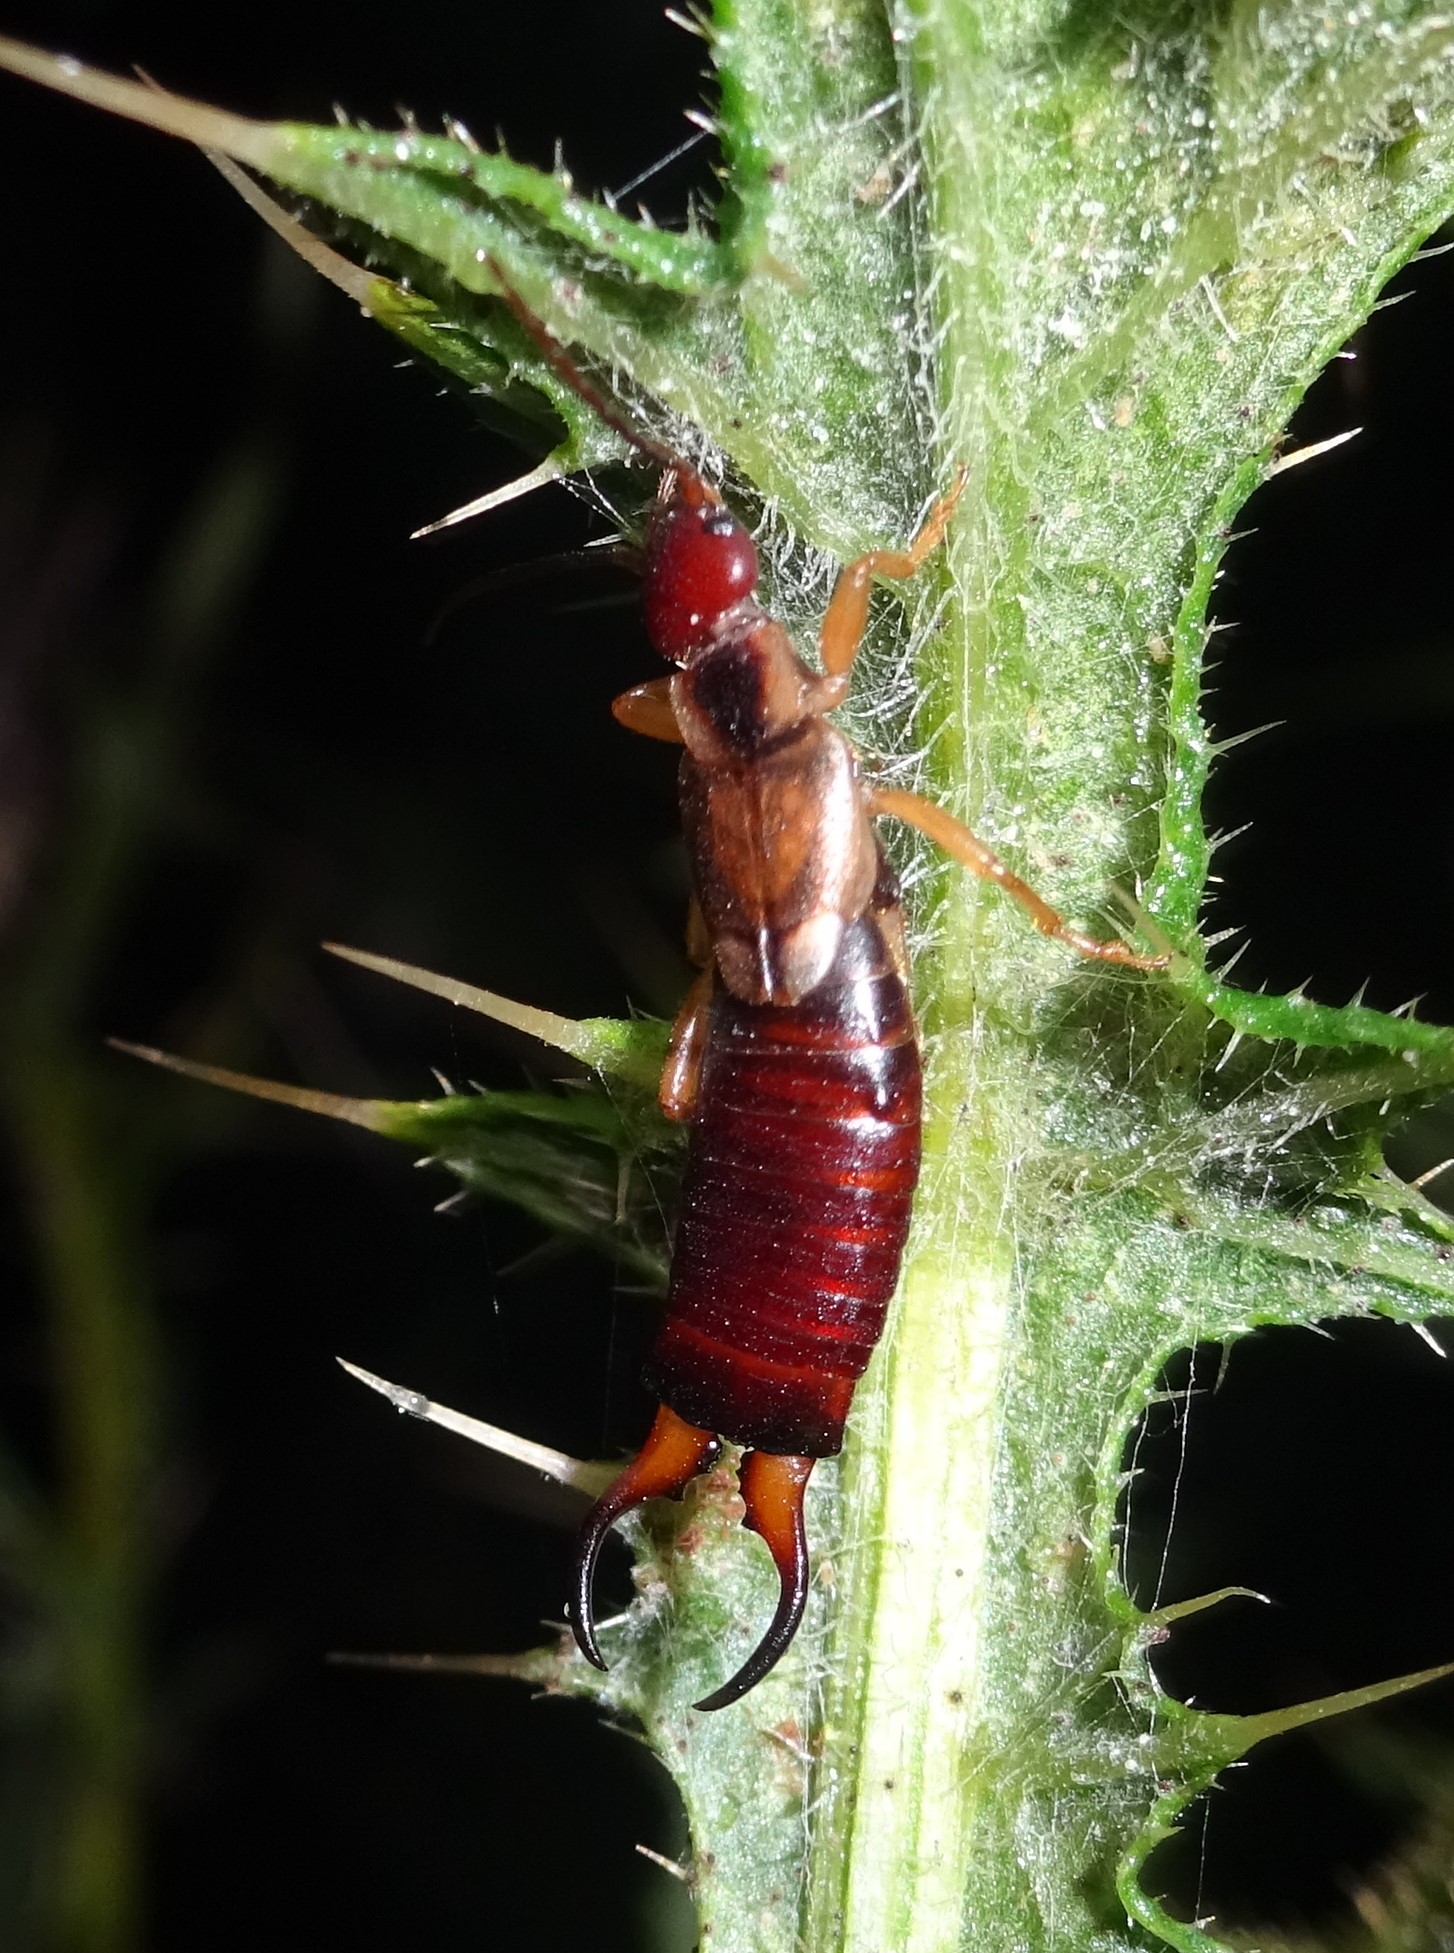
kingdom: Animalia
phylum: Arthropoda
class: Insecta
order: Dermaptera
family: Forficulidae
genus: Forficula
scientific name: Forficula
